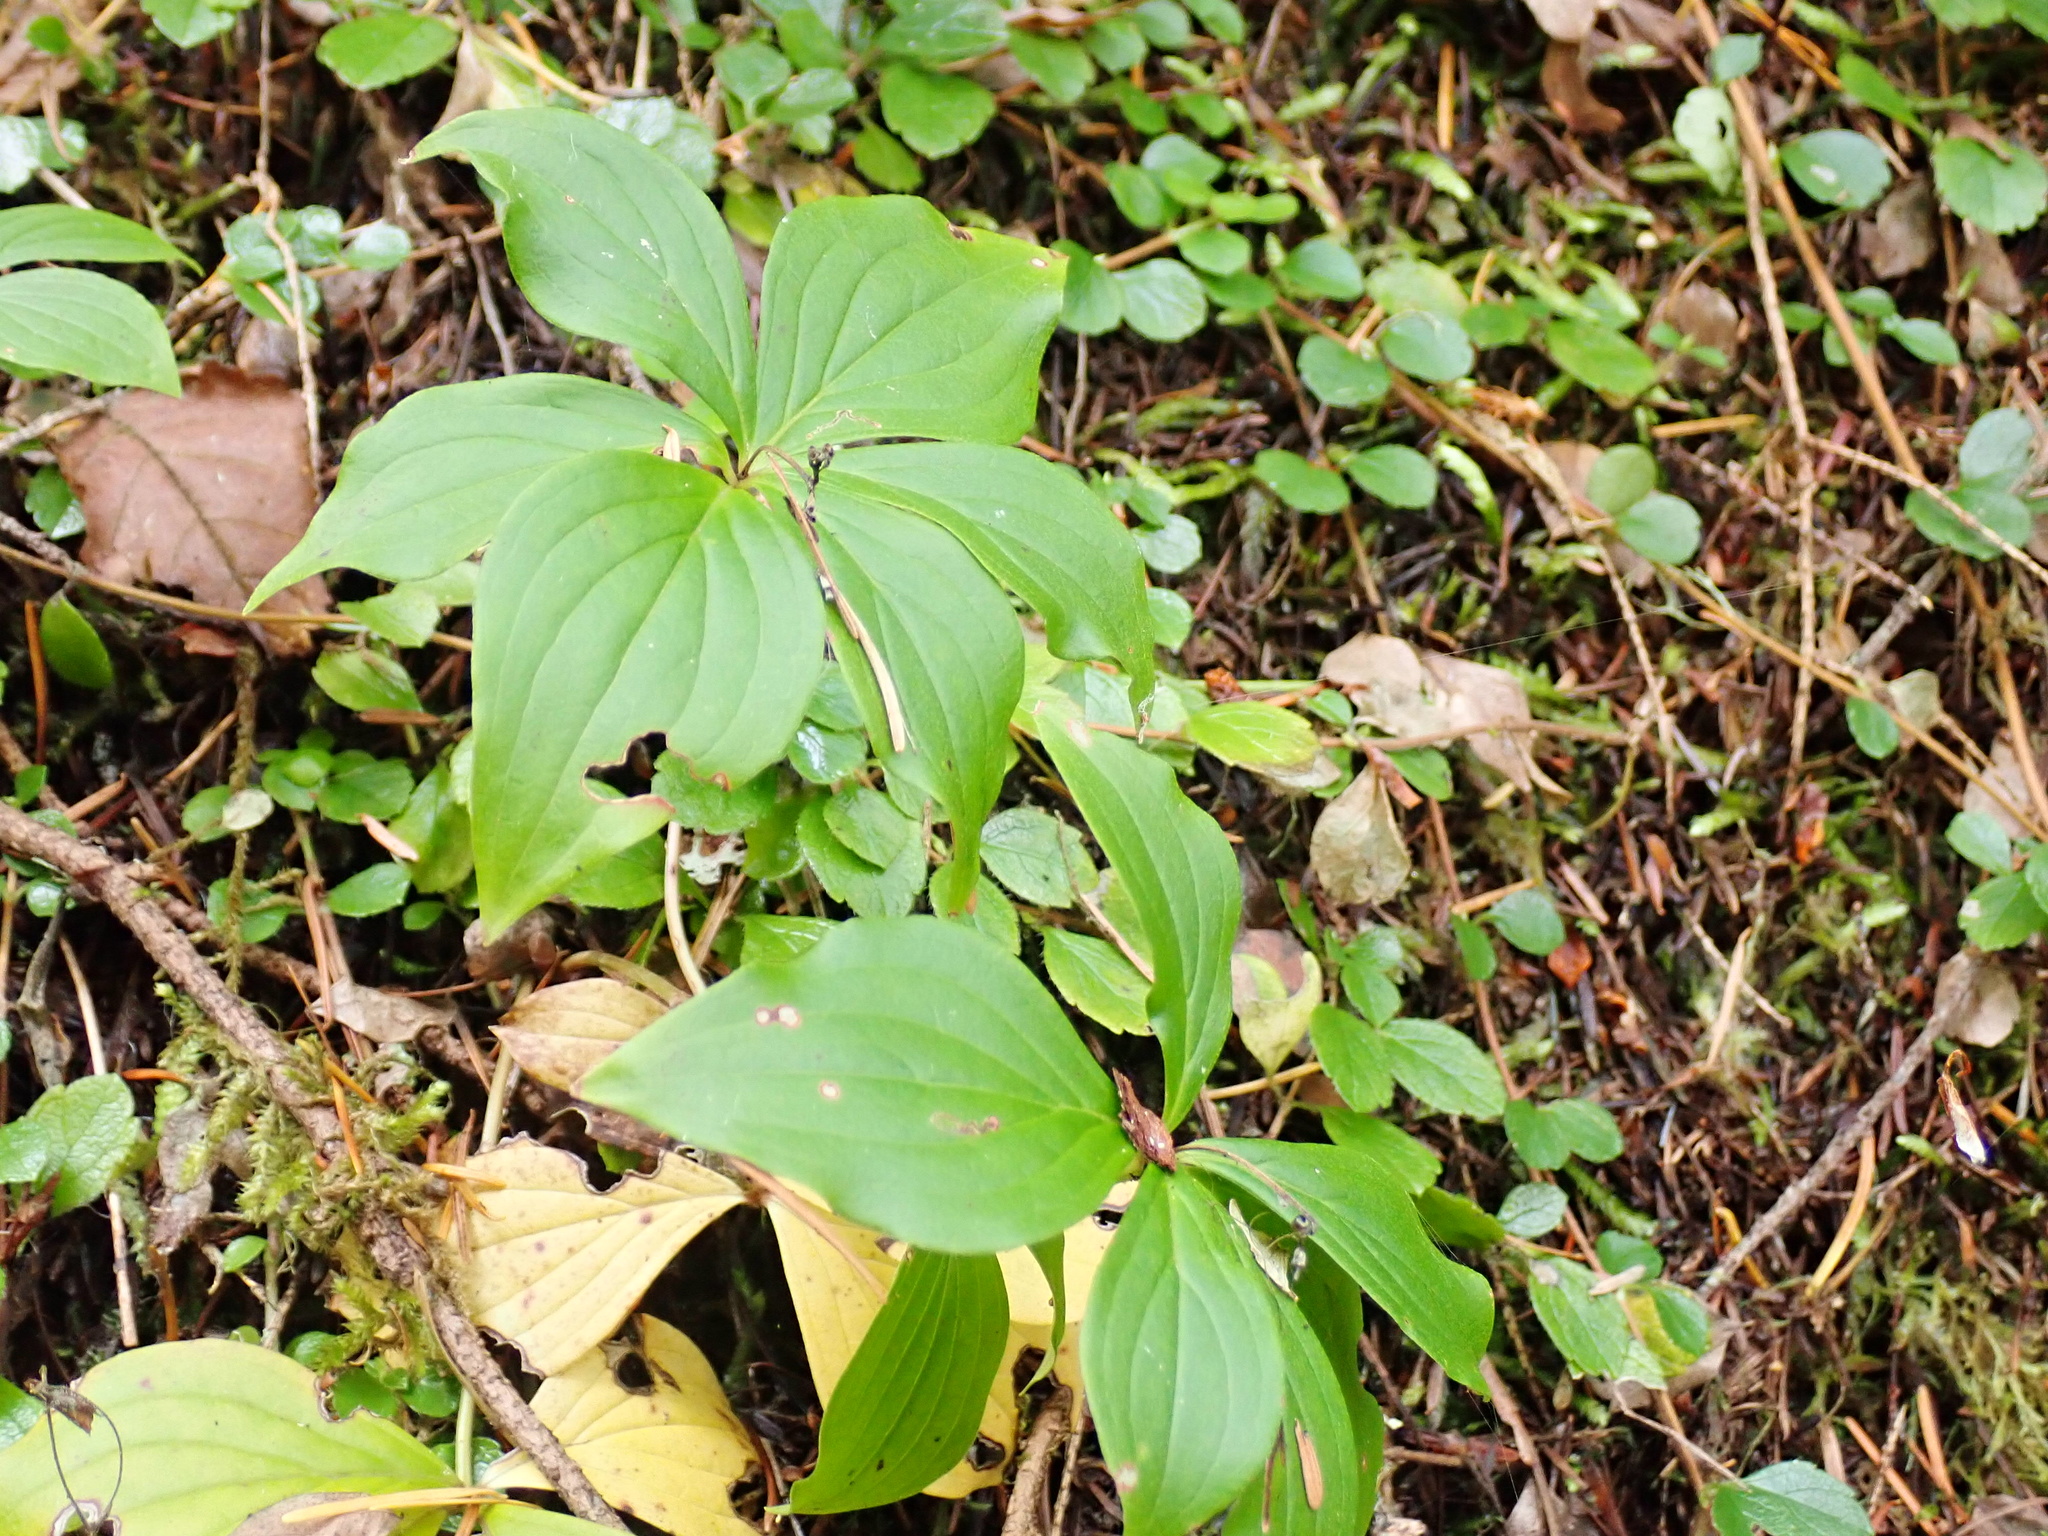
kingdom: Plantae
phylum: Tracheophyta
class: Magnoliopsida
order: Cornales
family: Cornaceae
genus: Cornus
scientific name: Cornus unalaschkensis
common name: Alaska bunchberry
